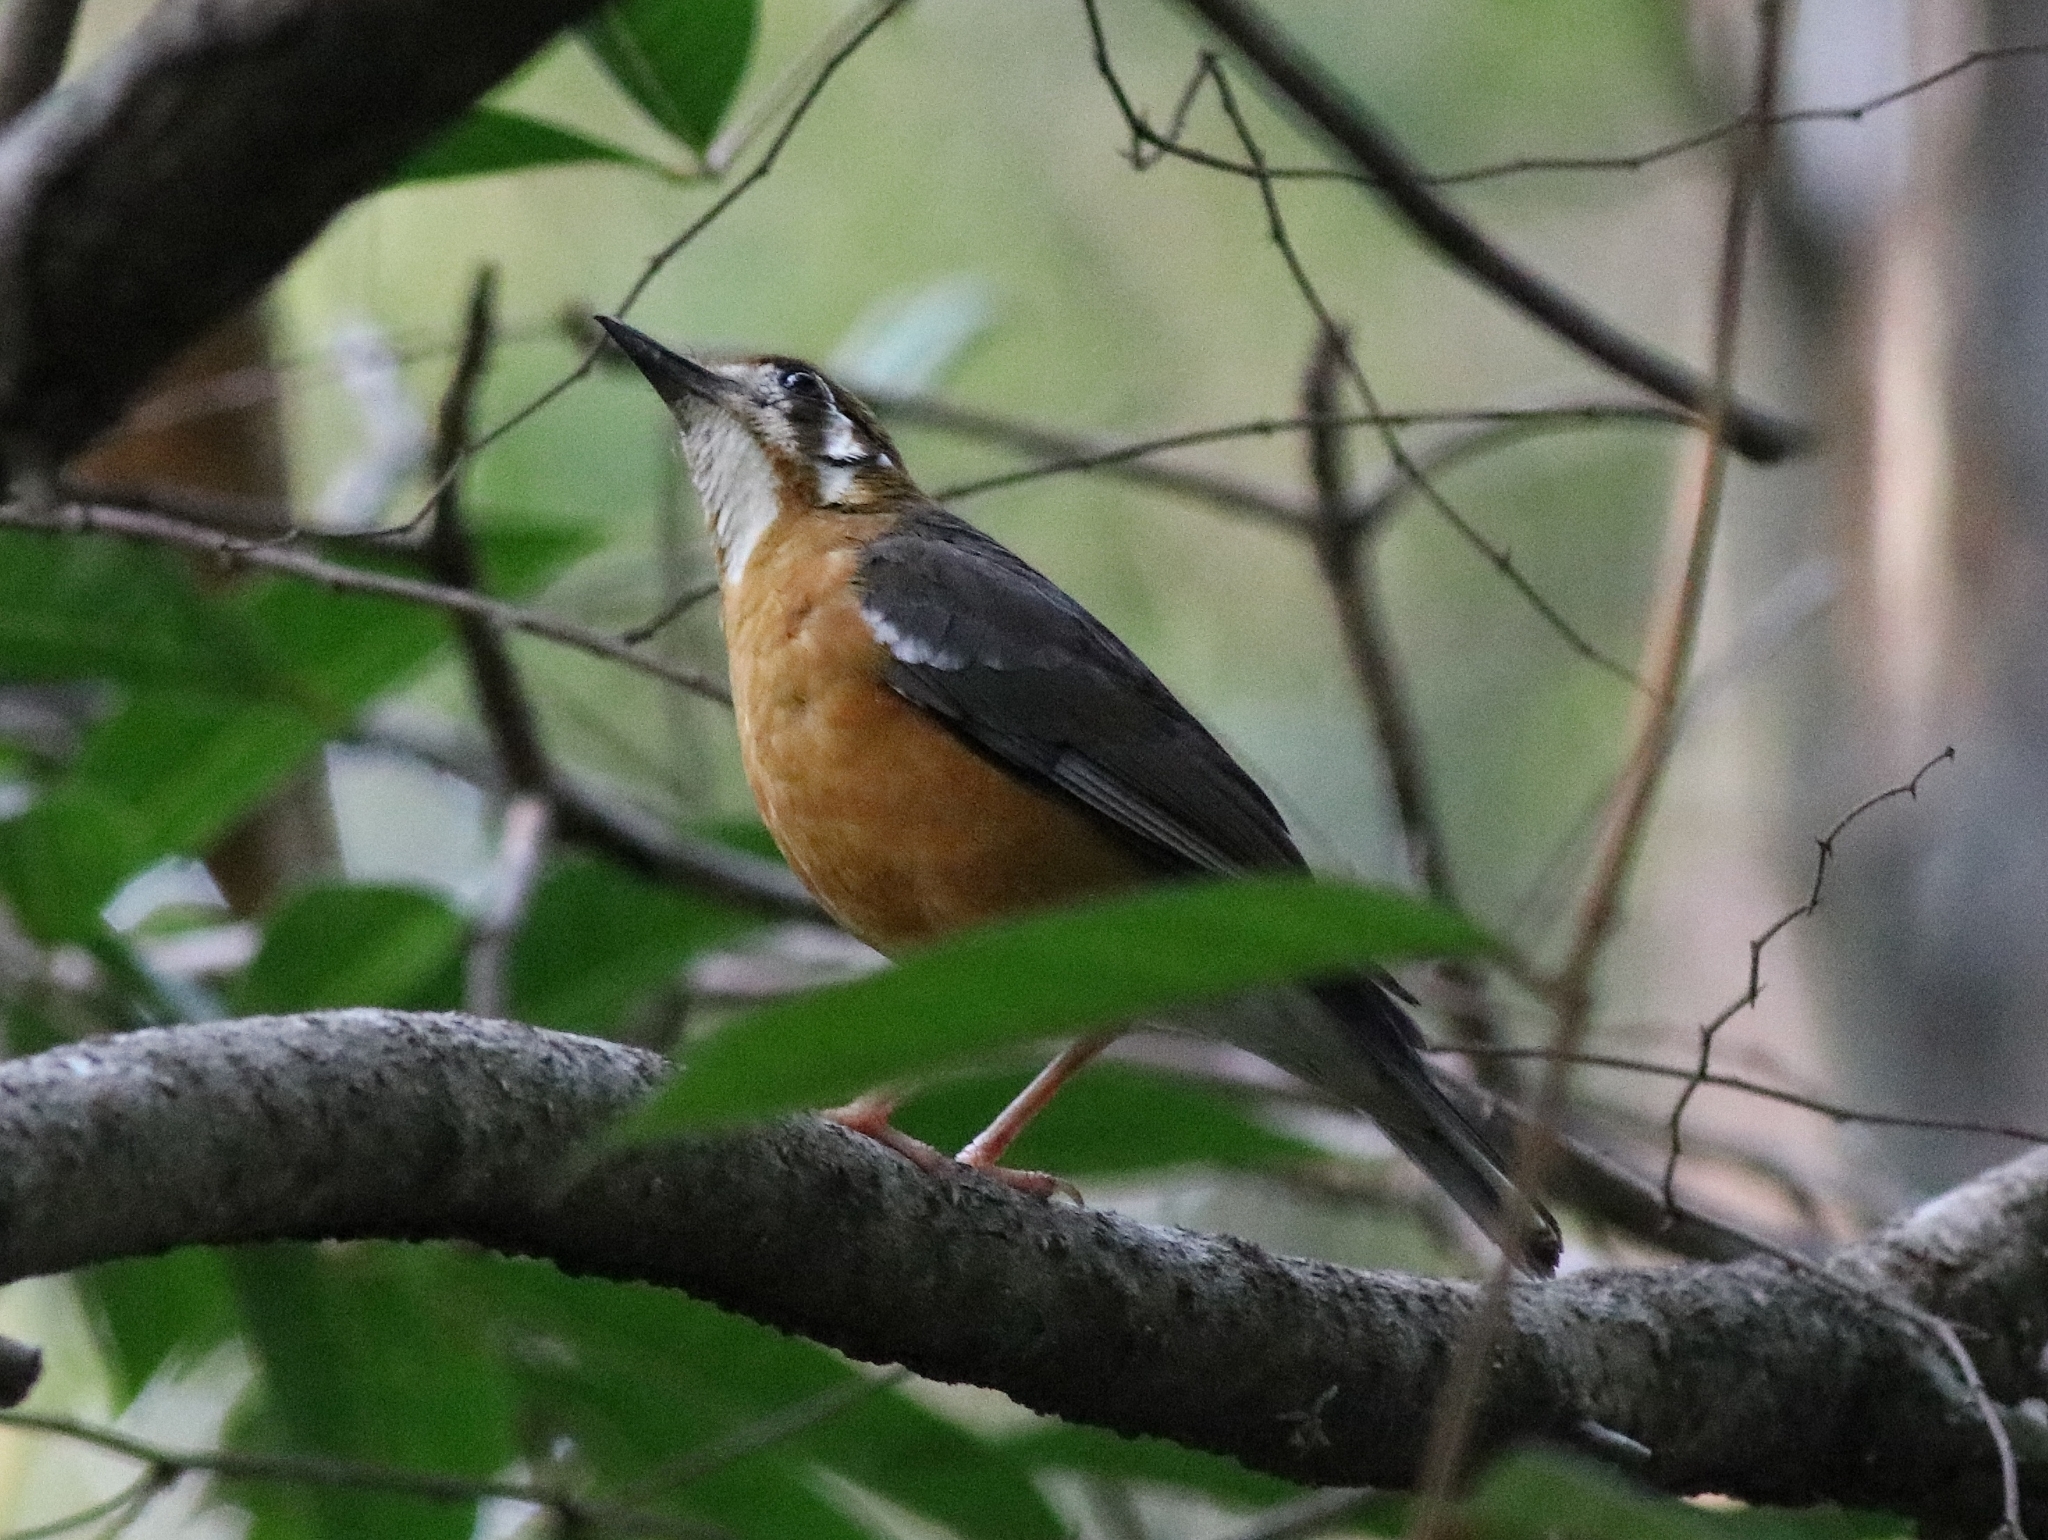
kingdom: Animalia
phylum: Chordata
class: Aves
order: Passeriformes
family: Turdidae
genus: Geokichla
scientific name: Geokichla citrina
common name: Orange-headed thrush
